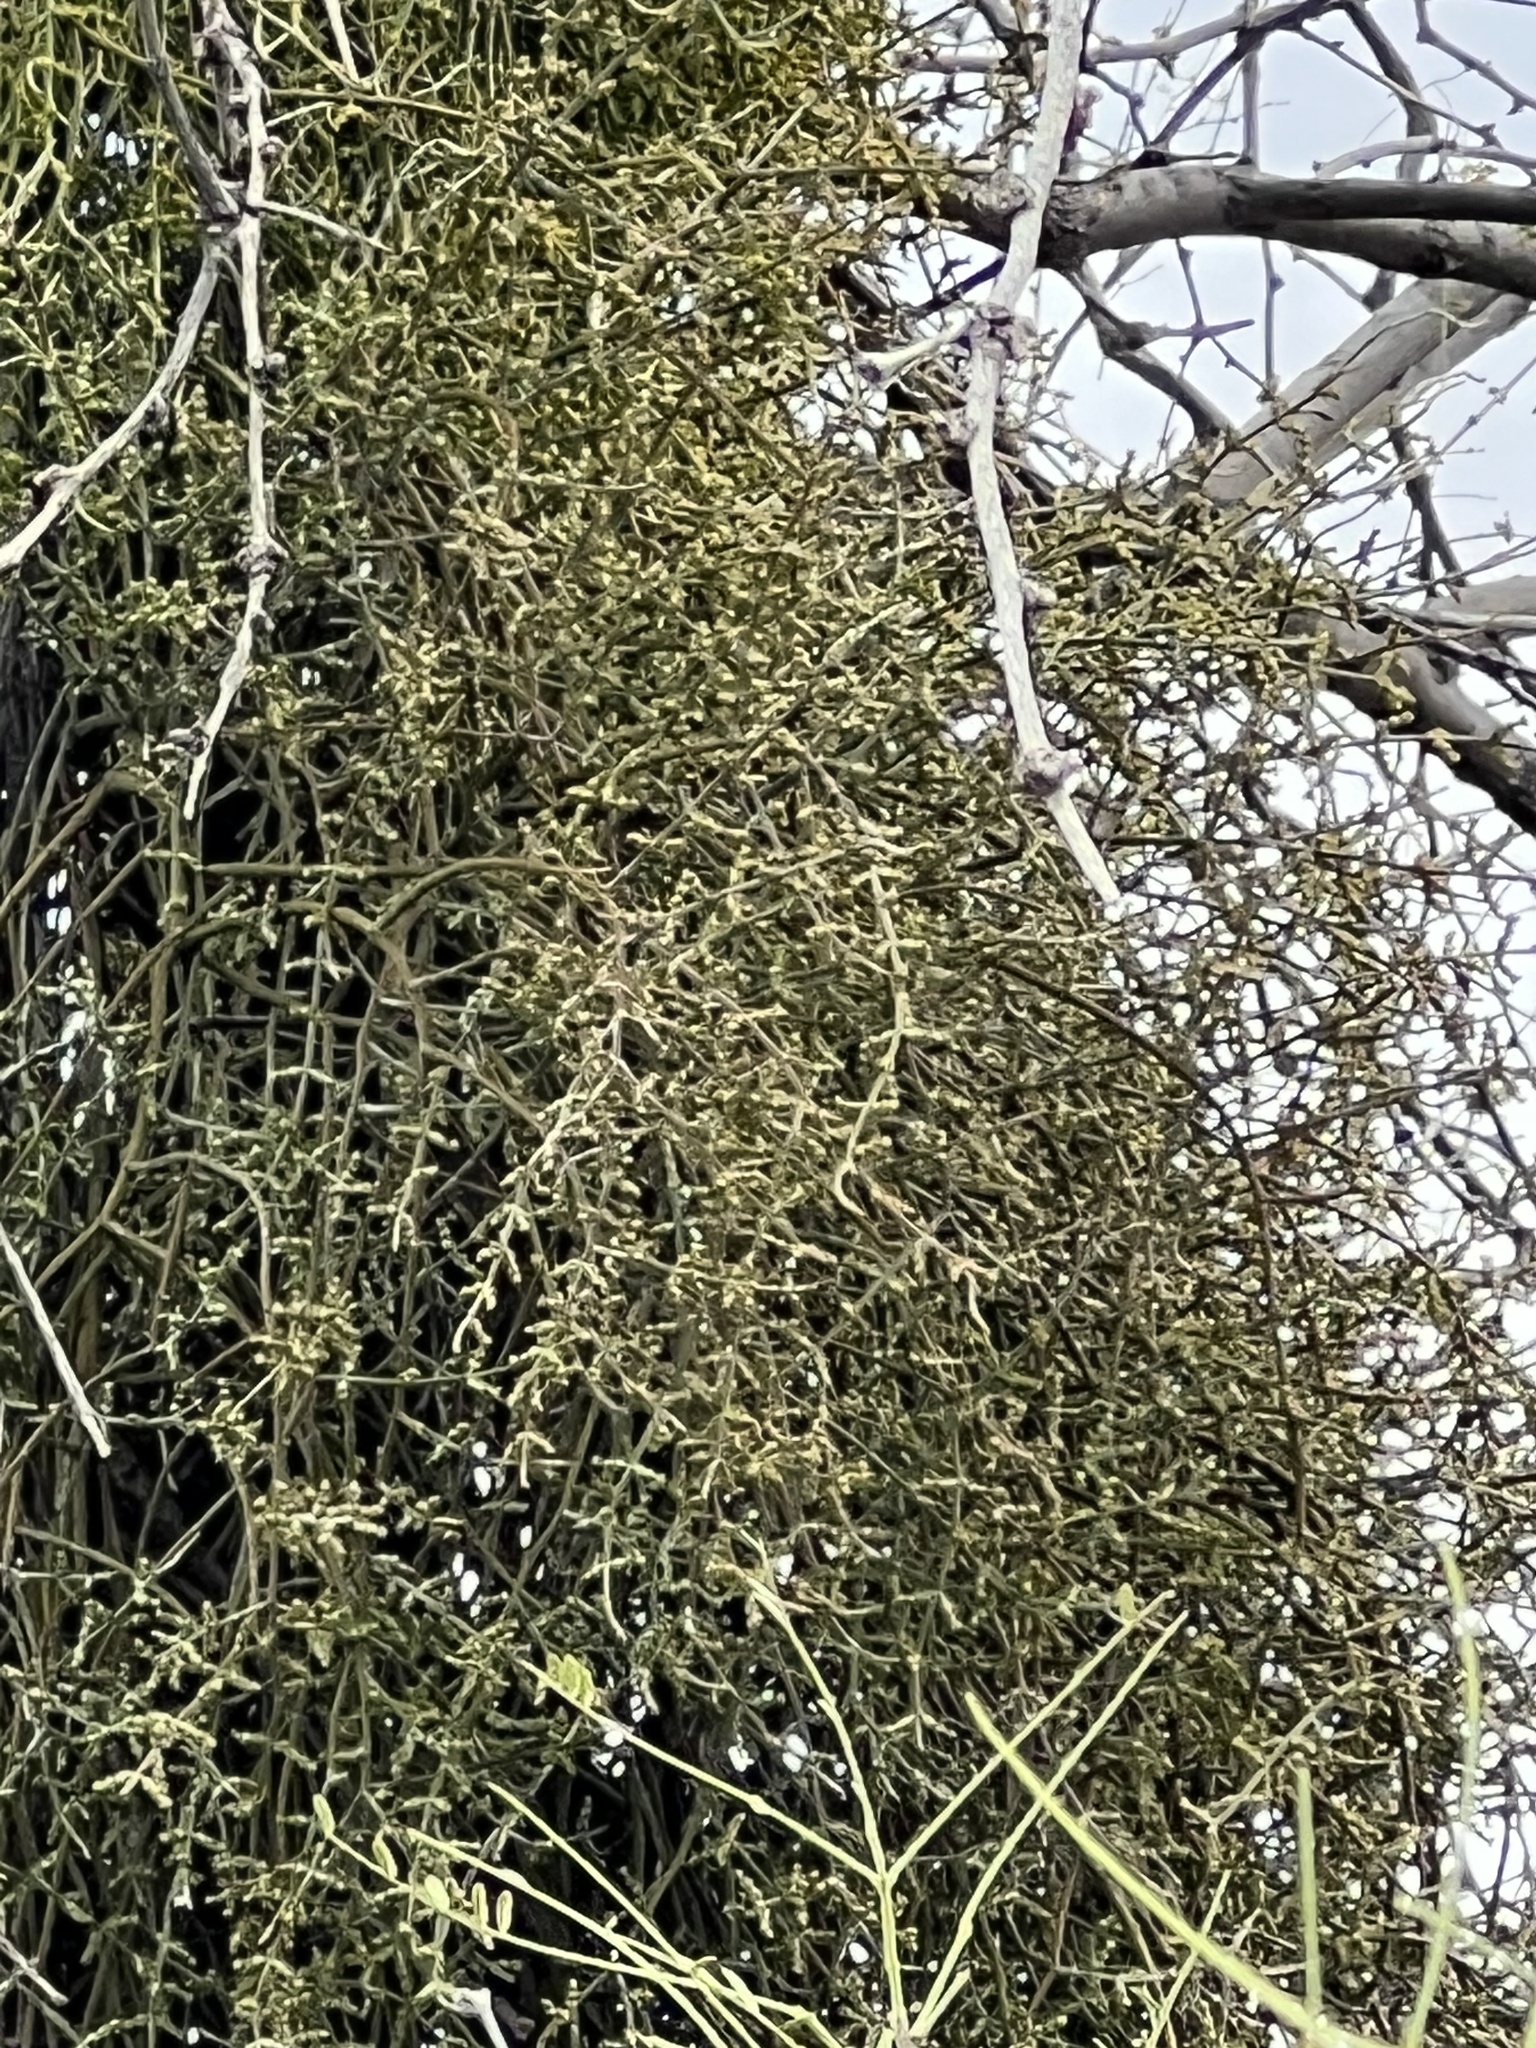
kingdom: Plantae
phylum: Tracheophyta
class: Magnoliopsida
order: Santalales
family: Viscaceae
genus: Phoradendron
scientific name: Phoradendron californicum
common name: Acacia mistletoe
